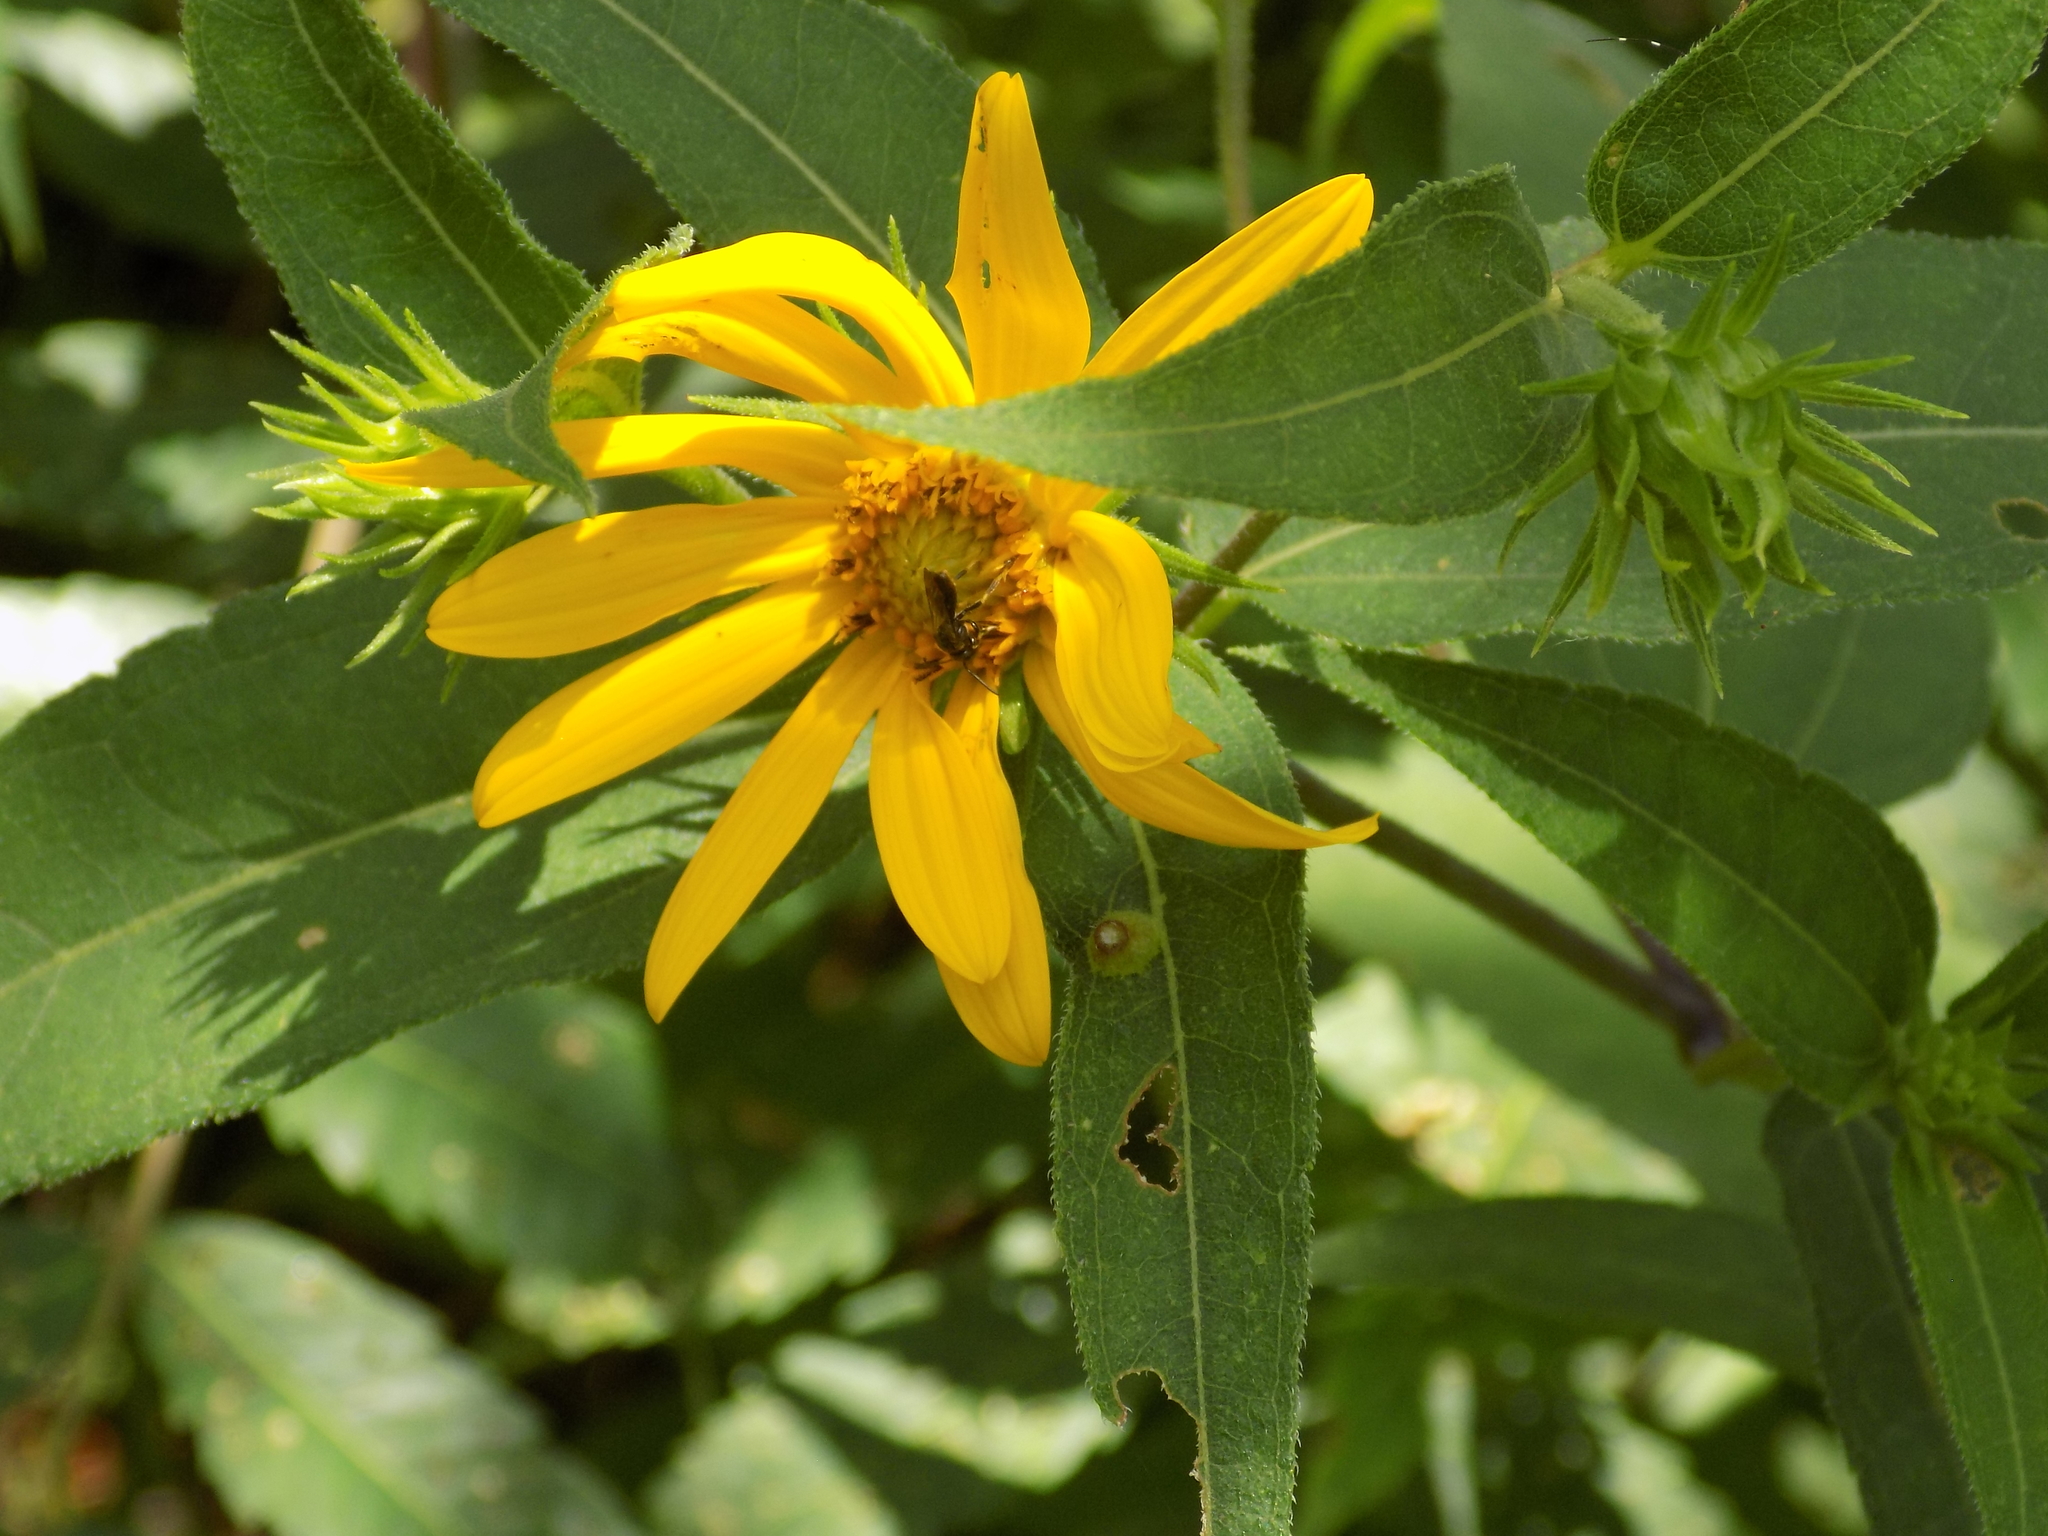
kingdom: Plantae
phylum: Tracheophyta
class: Magnoliopsida
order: Asterales
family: Asteraceae
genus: Helianthus
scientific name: Helianthus hirsutus
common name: Hairy sunflower
